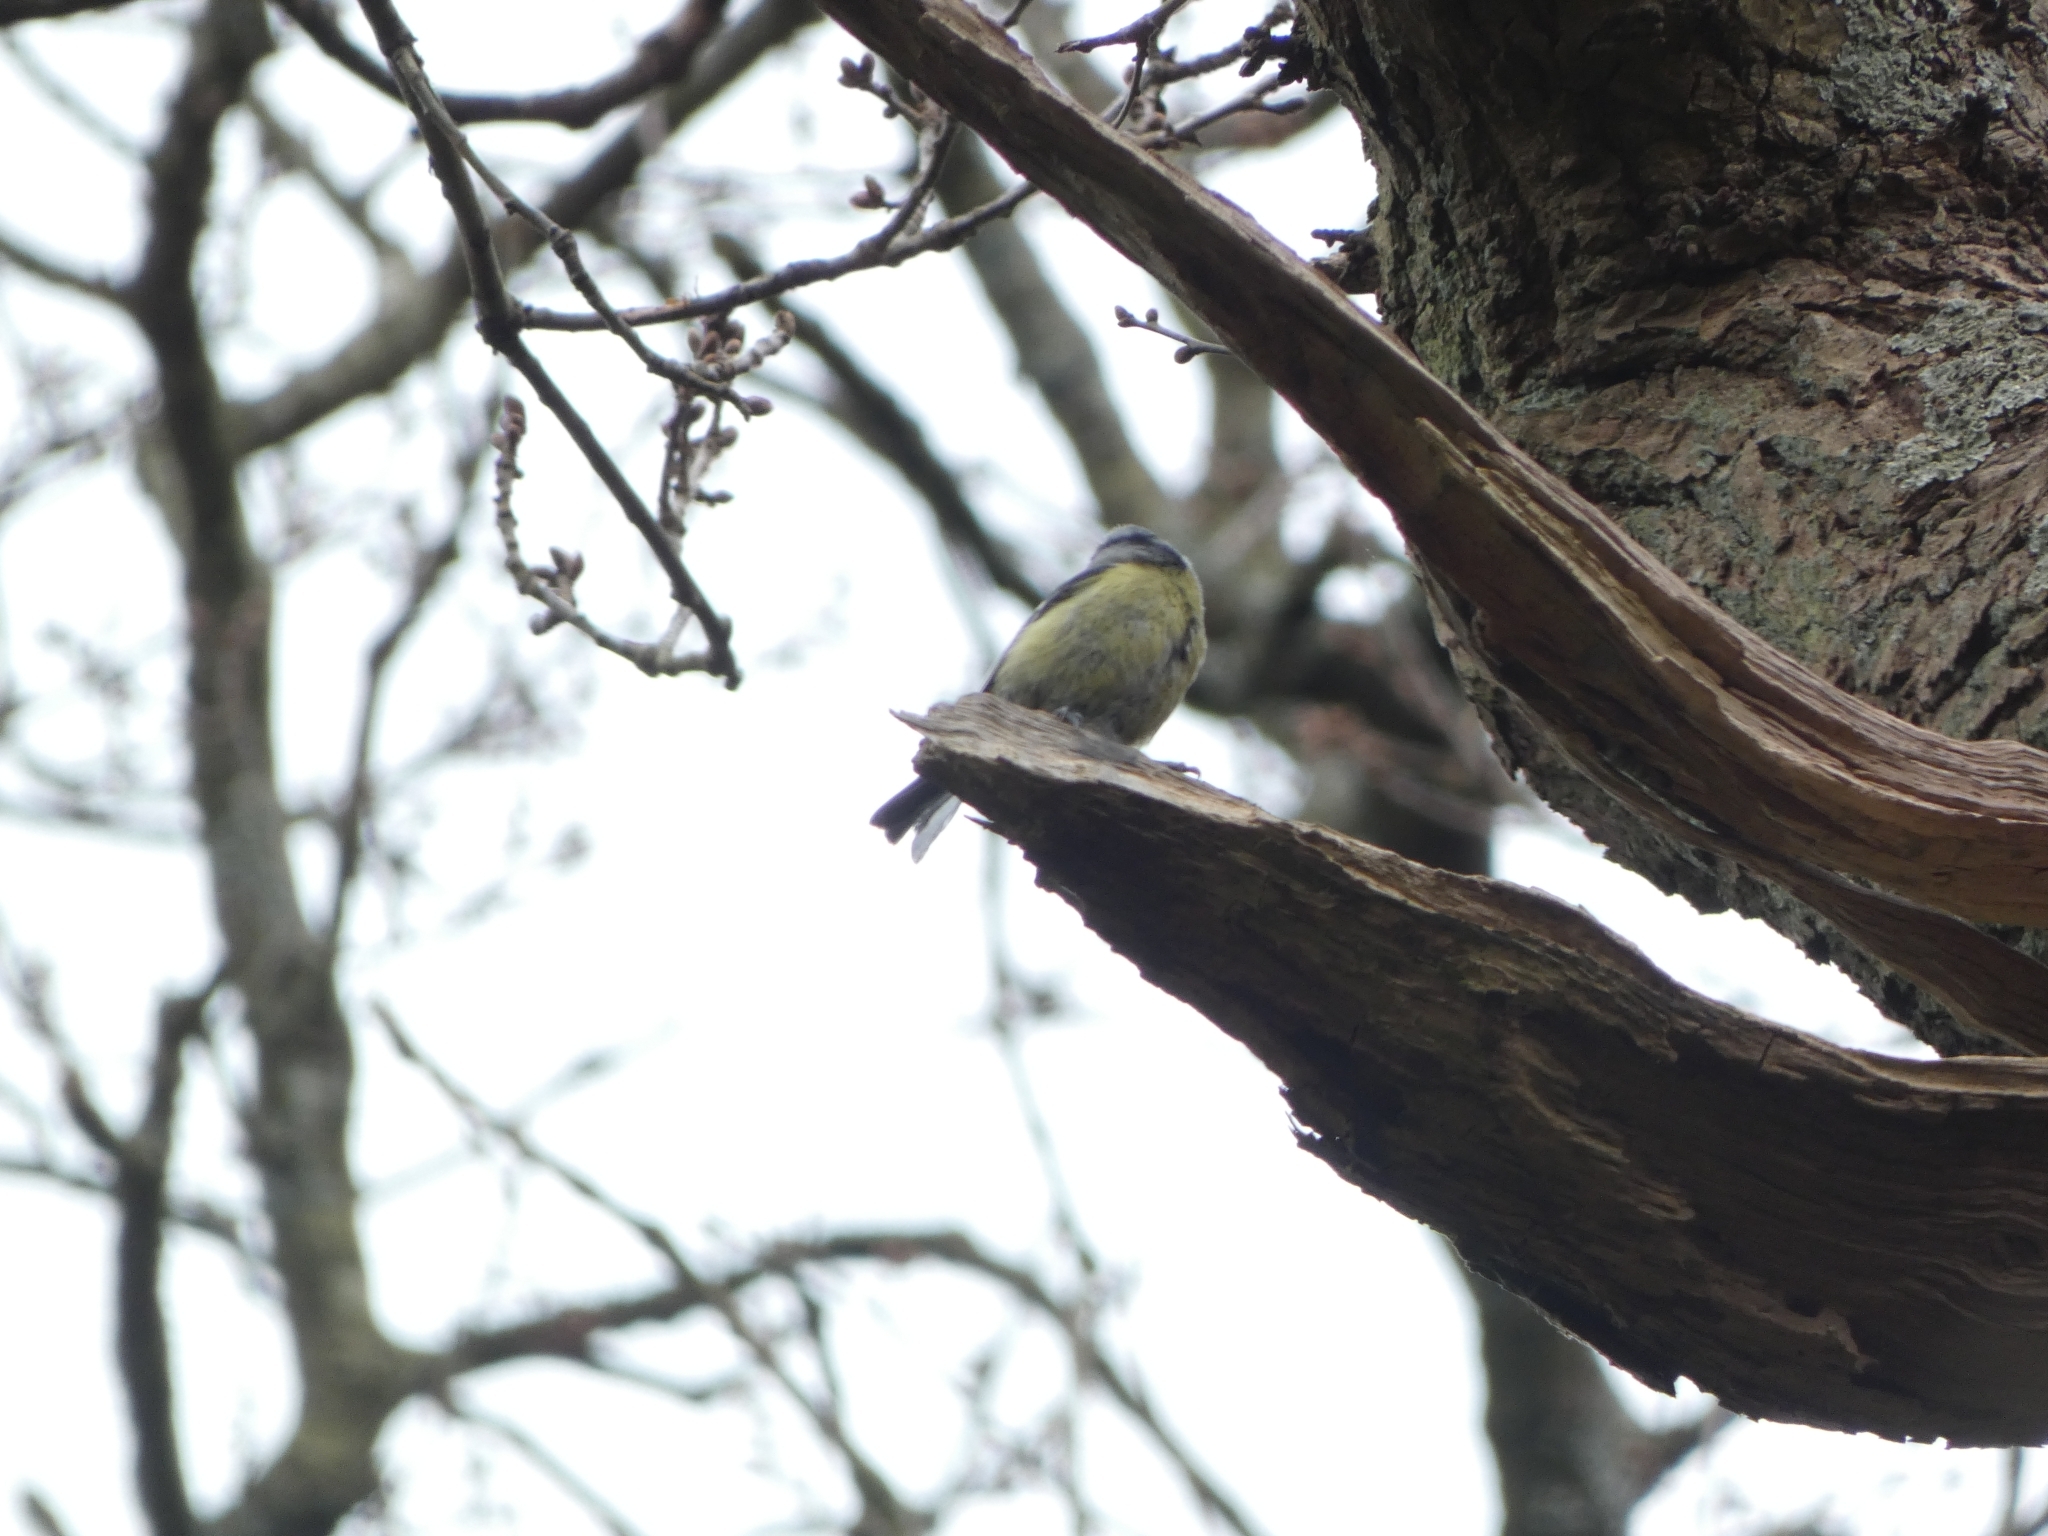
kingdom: Animalia
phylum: Chordata
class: Aves
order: Passeriformes
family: Paridae
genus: Cyanistes
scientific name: Cyanistes caeruleus
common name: Eurasian blue tit
